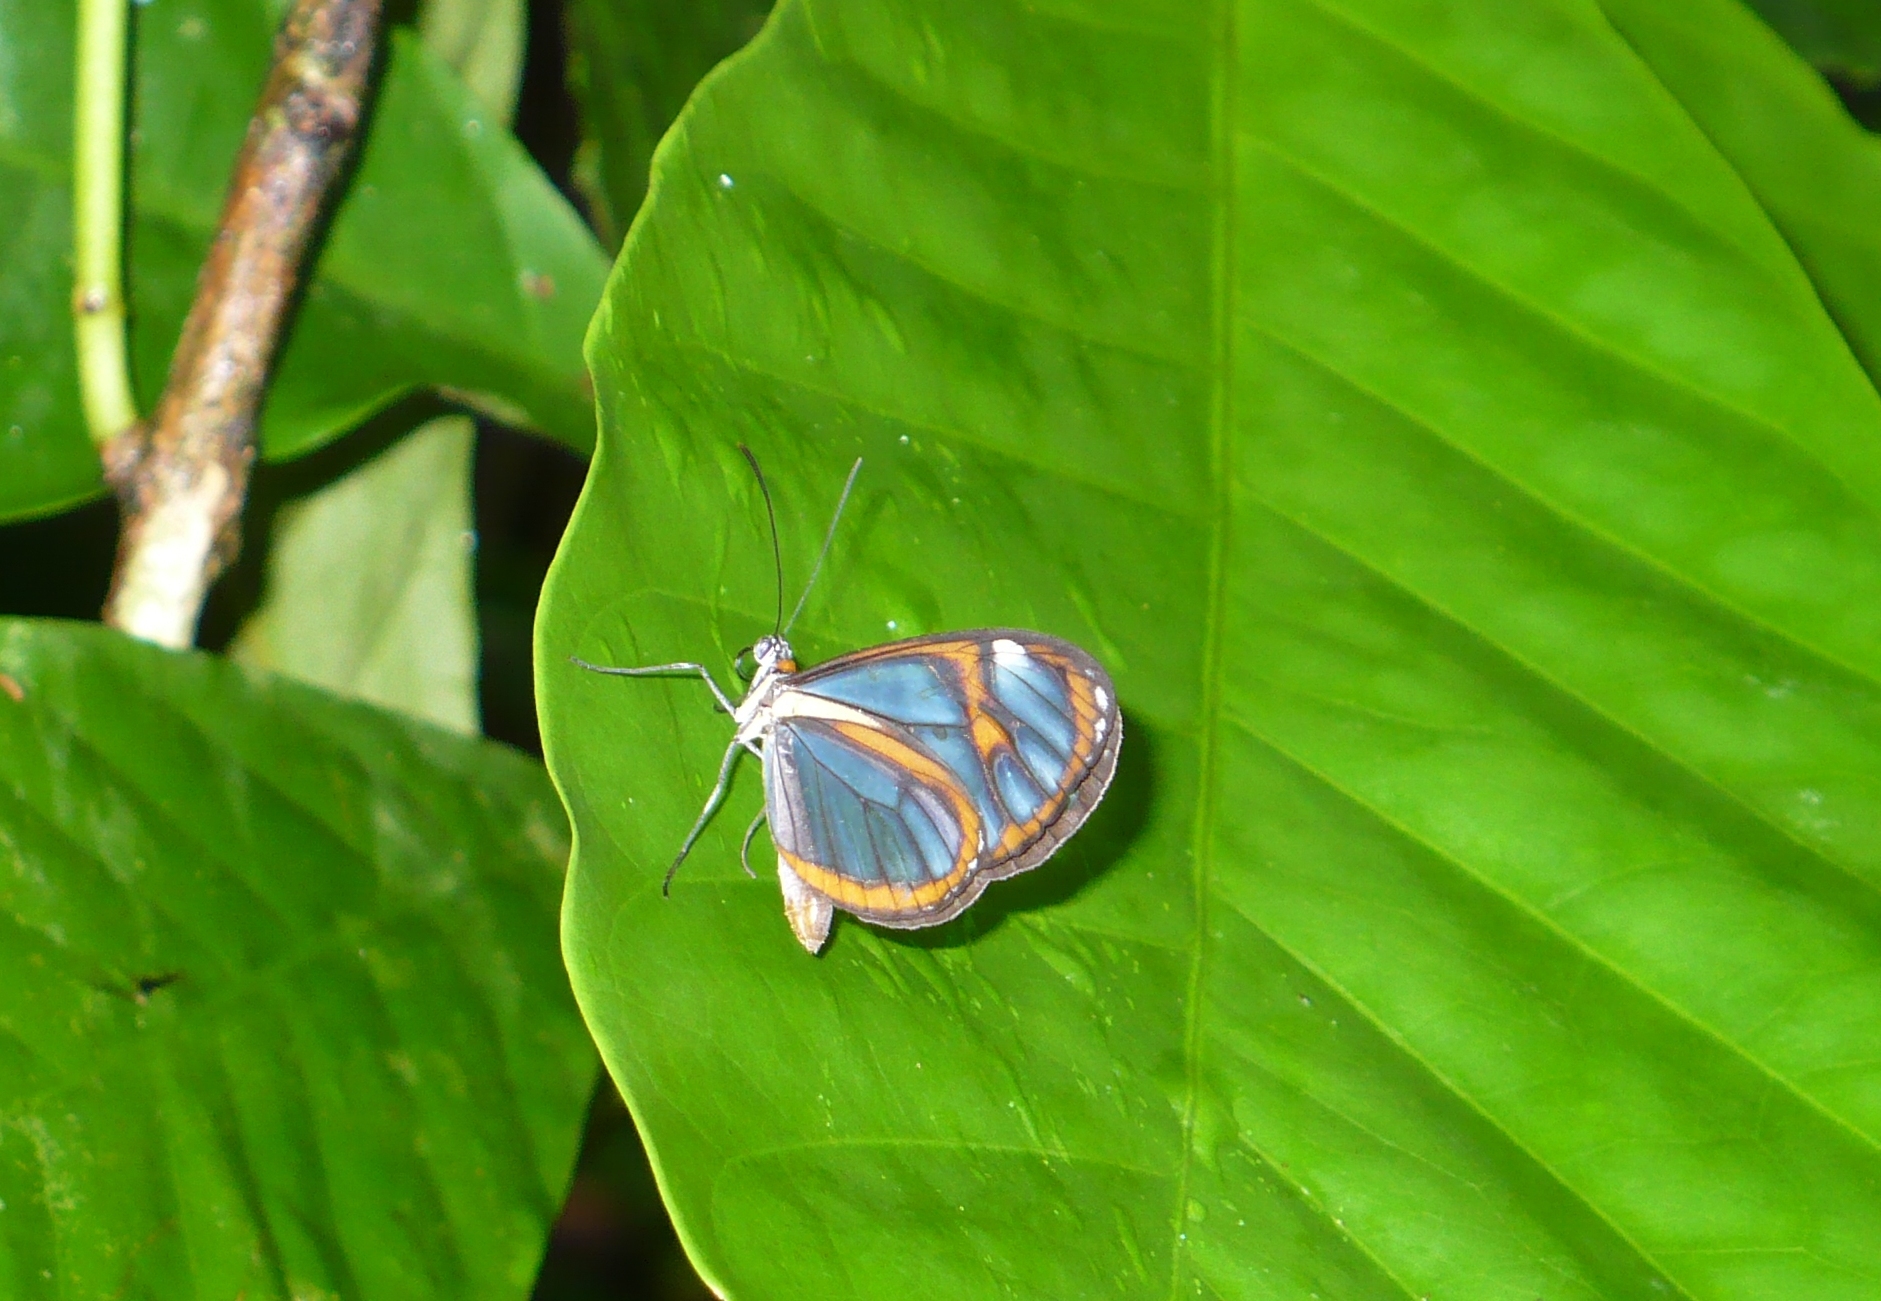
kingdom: Animalia
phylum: Arthropoda
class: Insecta
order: Lepidoptera
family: Nymphalidae
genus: Ithomia
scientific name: Ithomia agnosia
